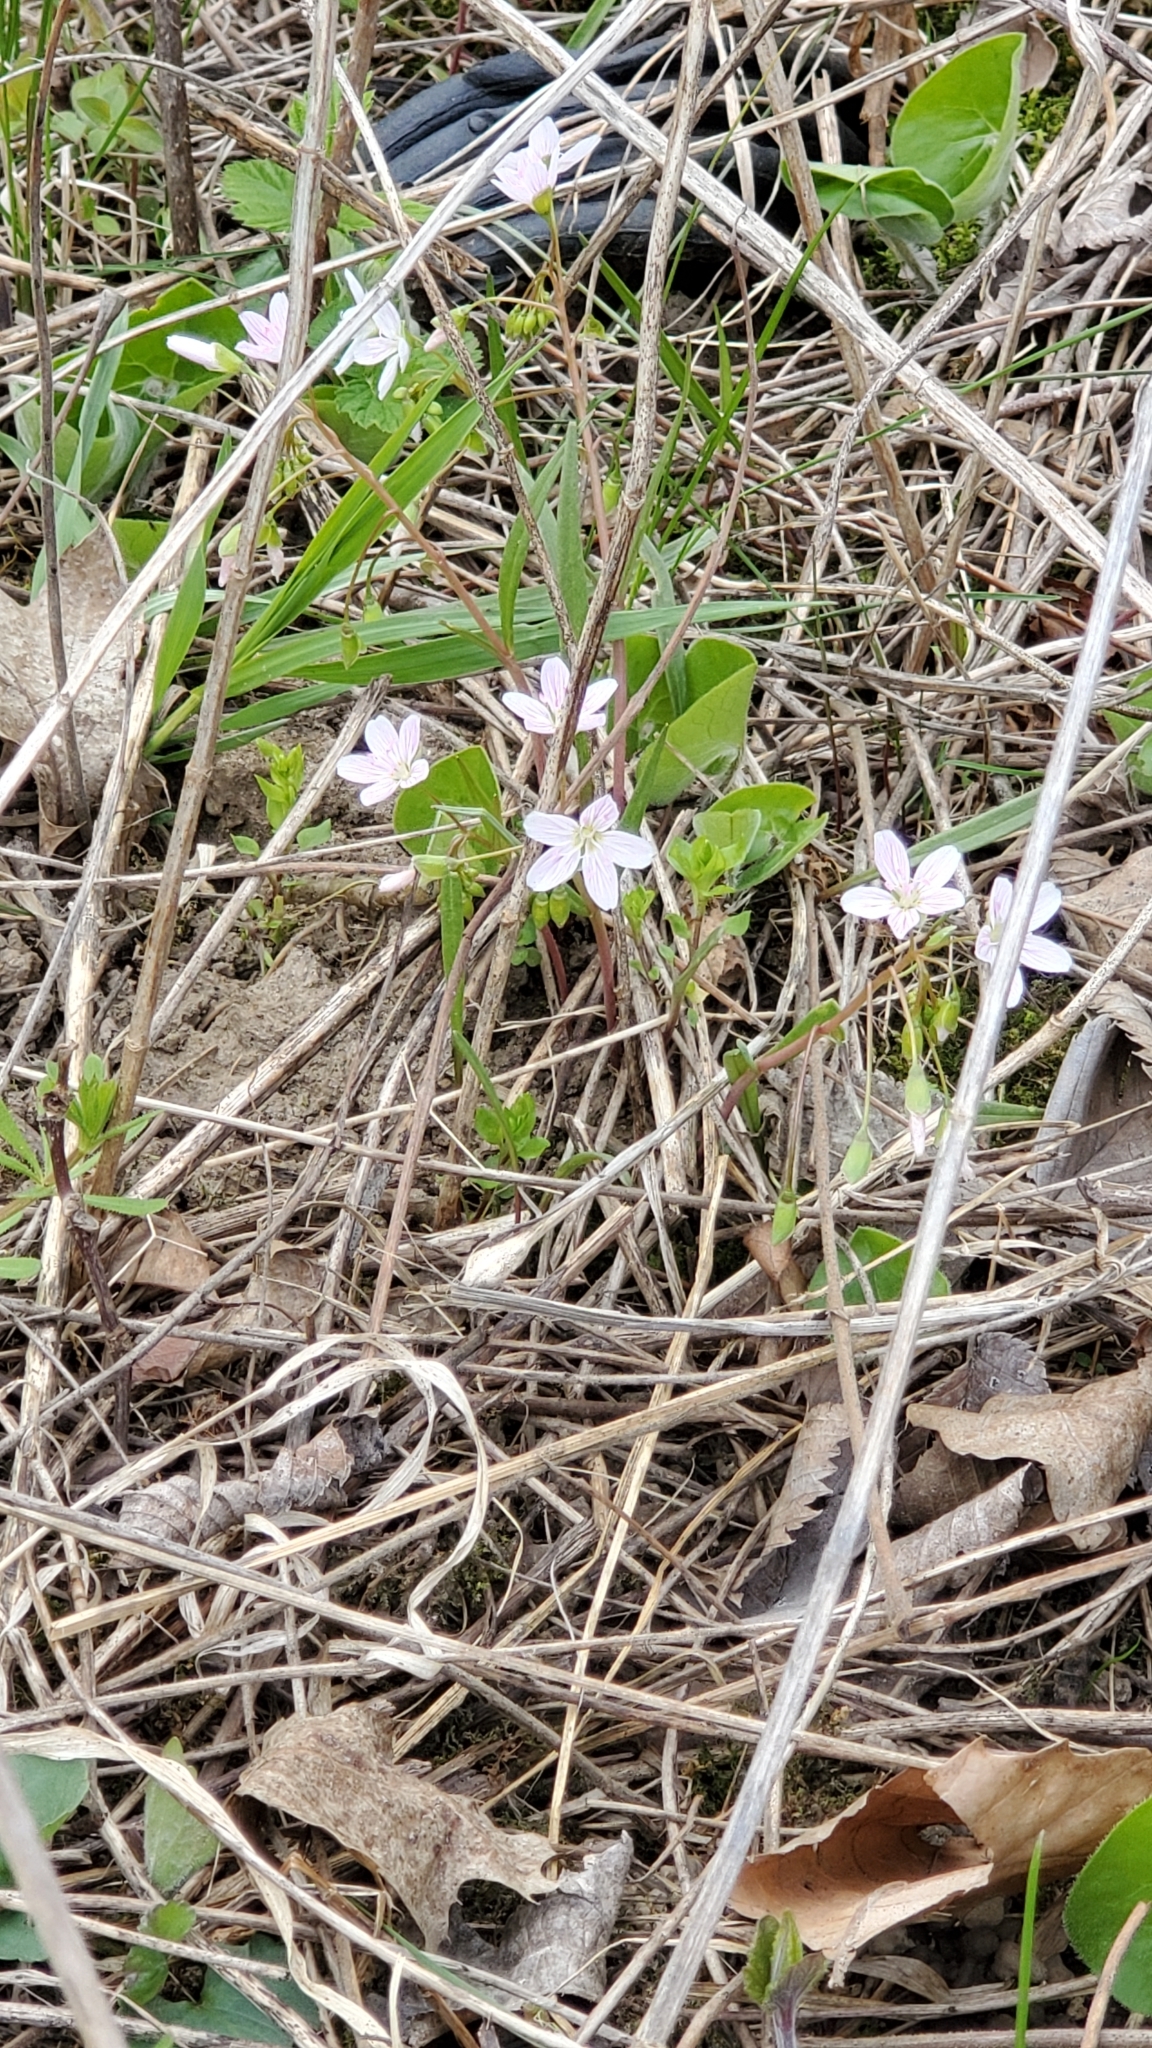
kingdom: Plantae
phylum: Tracheophyta
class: Magnoliopsida
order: Caryophyllales
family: Montiaceae
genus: Claytonia
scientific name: Claytonia virginica
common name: Virginia springbeauty
